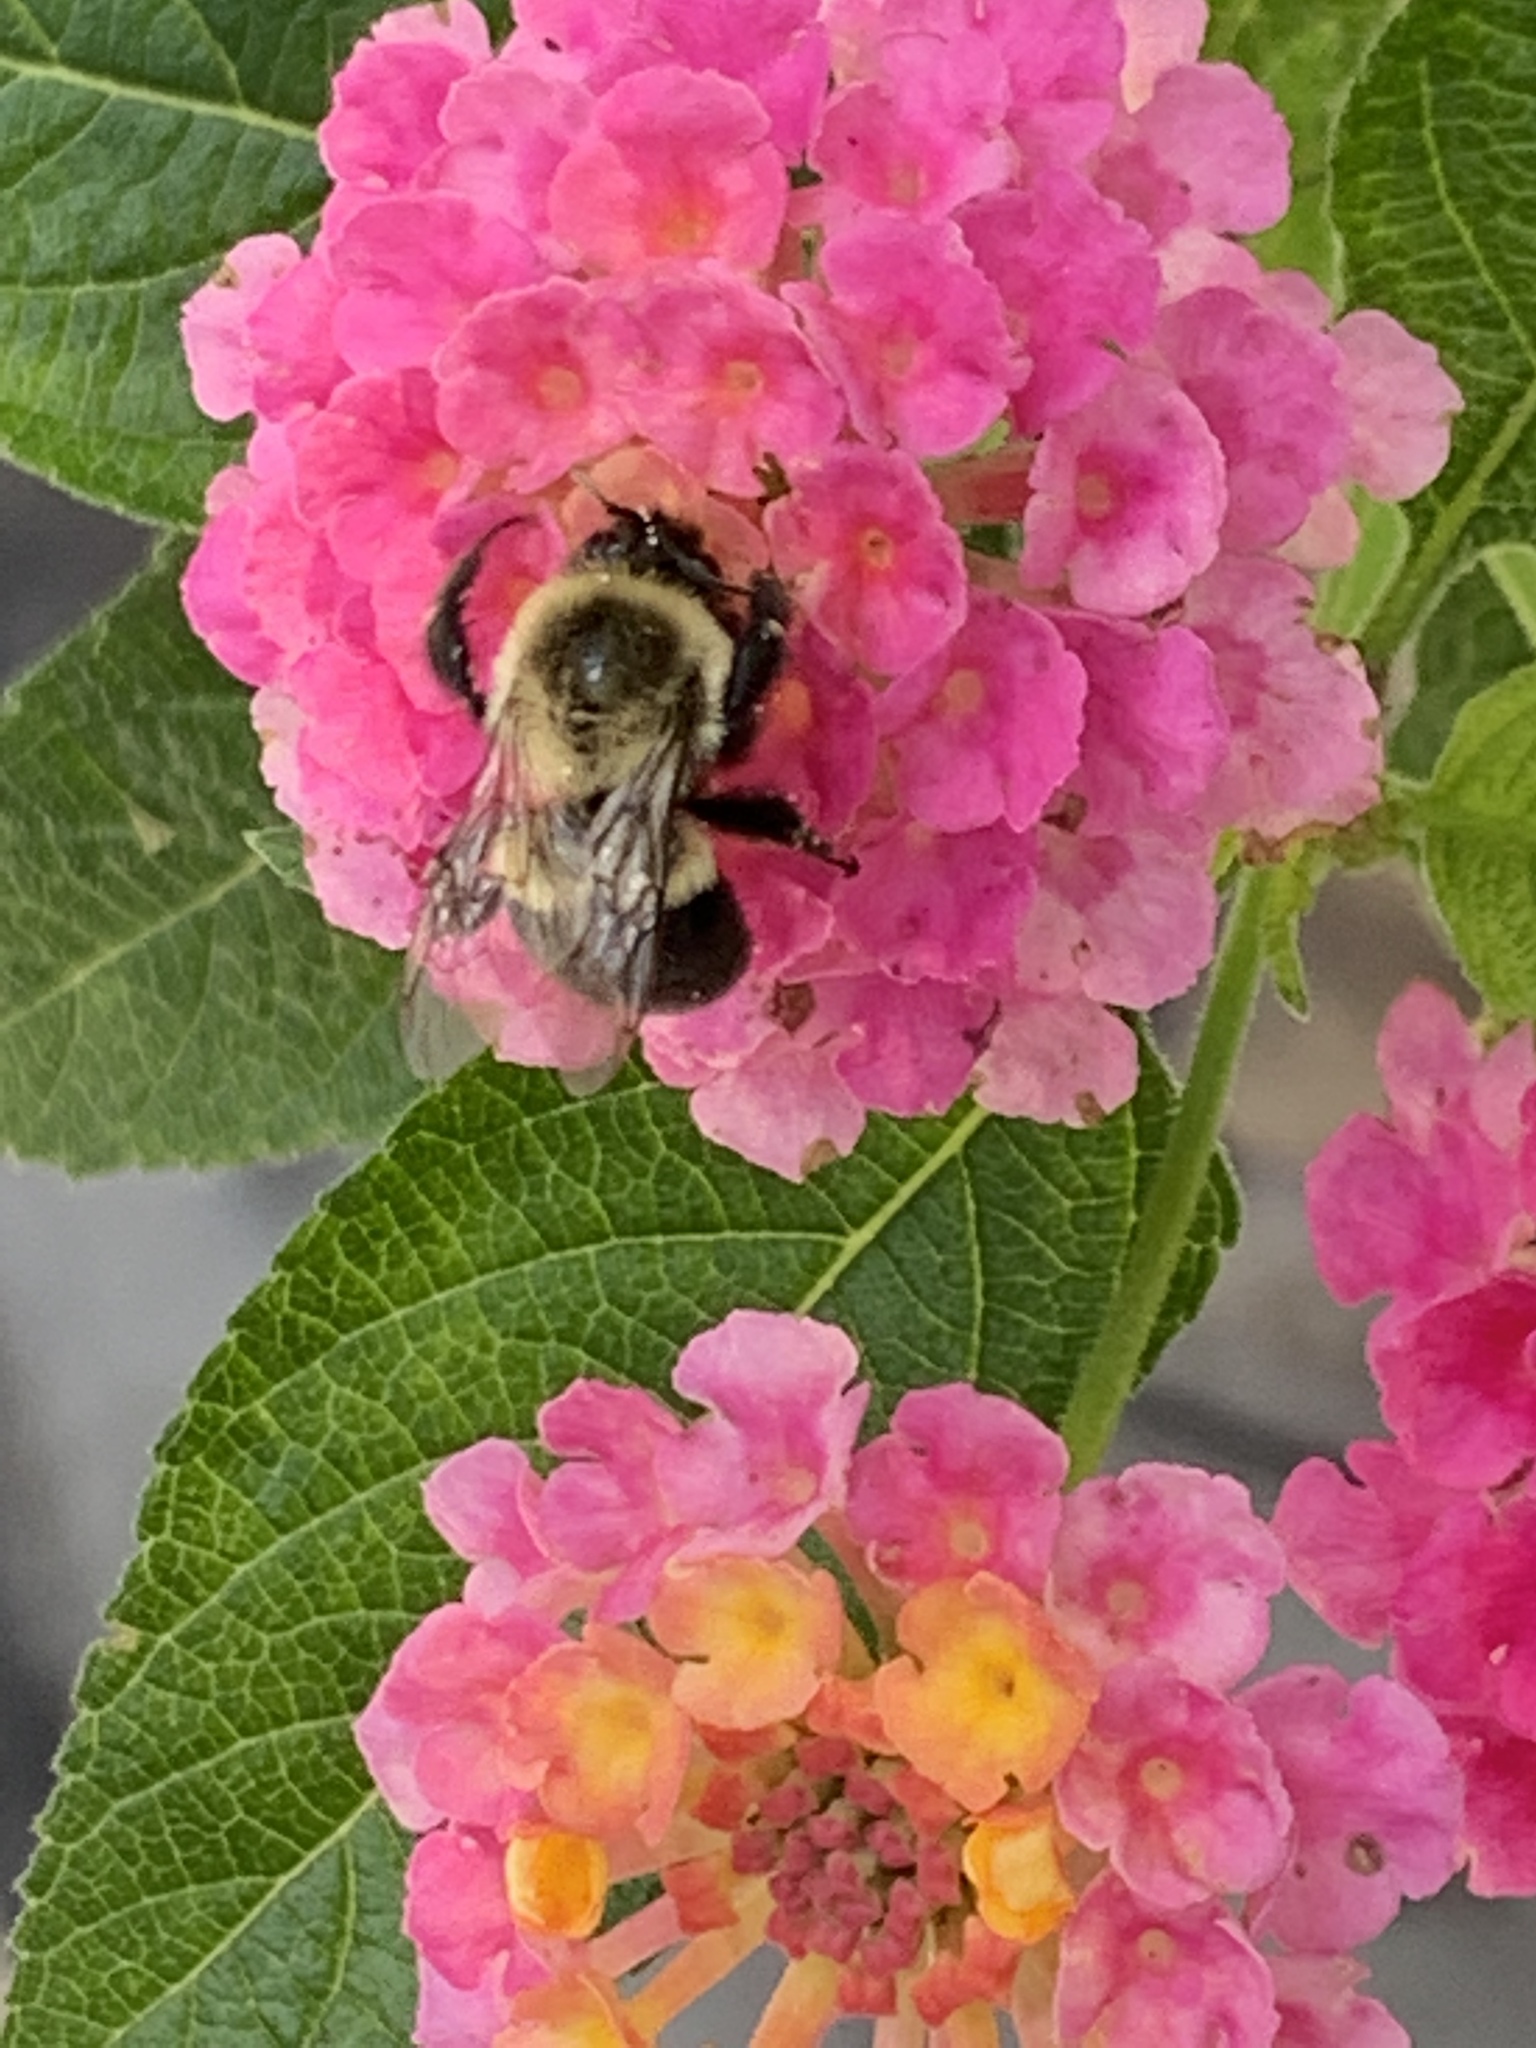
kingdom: Animalia
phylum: Arthropoda
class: Insecta
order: Hymenoptera
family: Apidae
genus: Bombus
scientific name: Bombus impatiens
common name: Common eastern bumble bee
